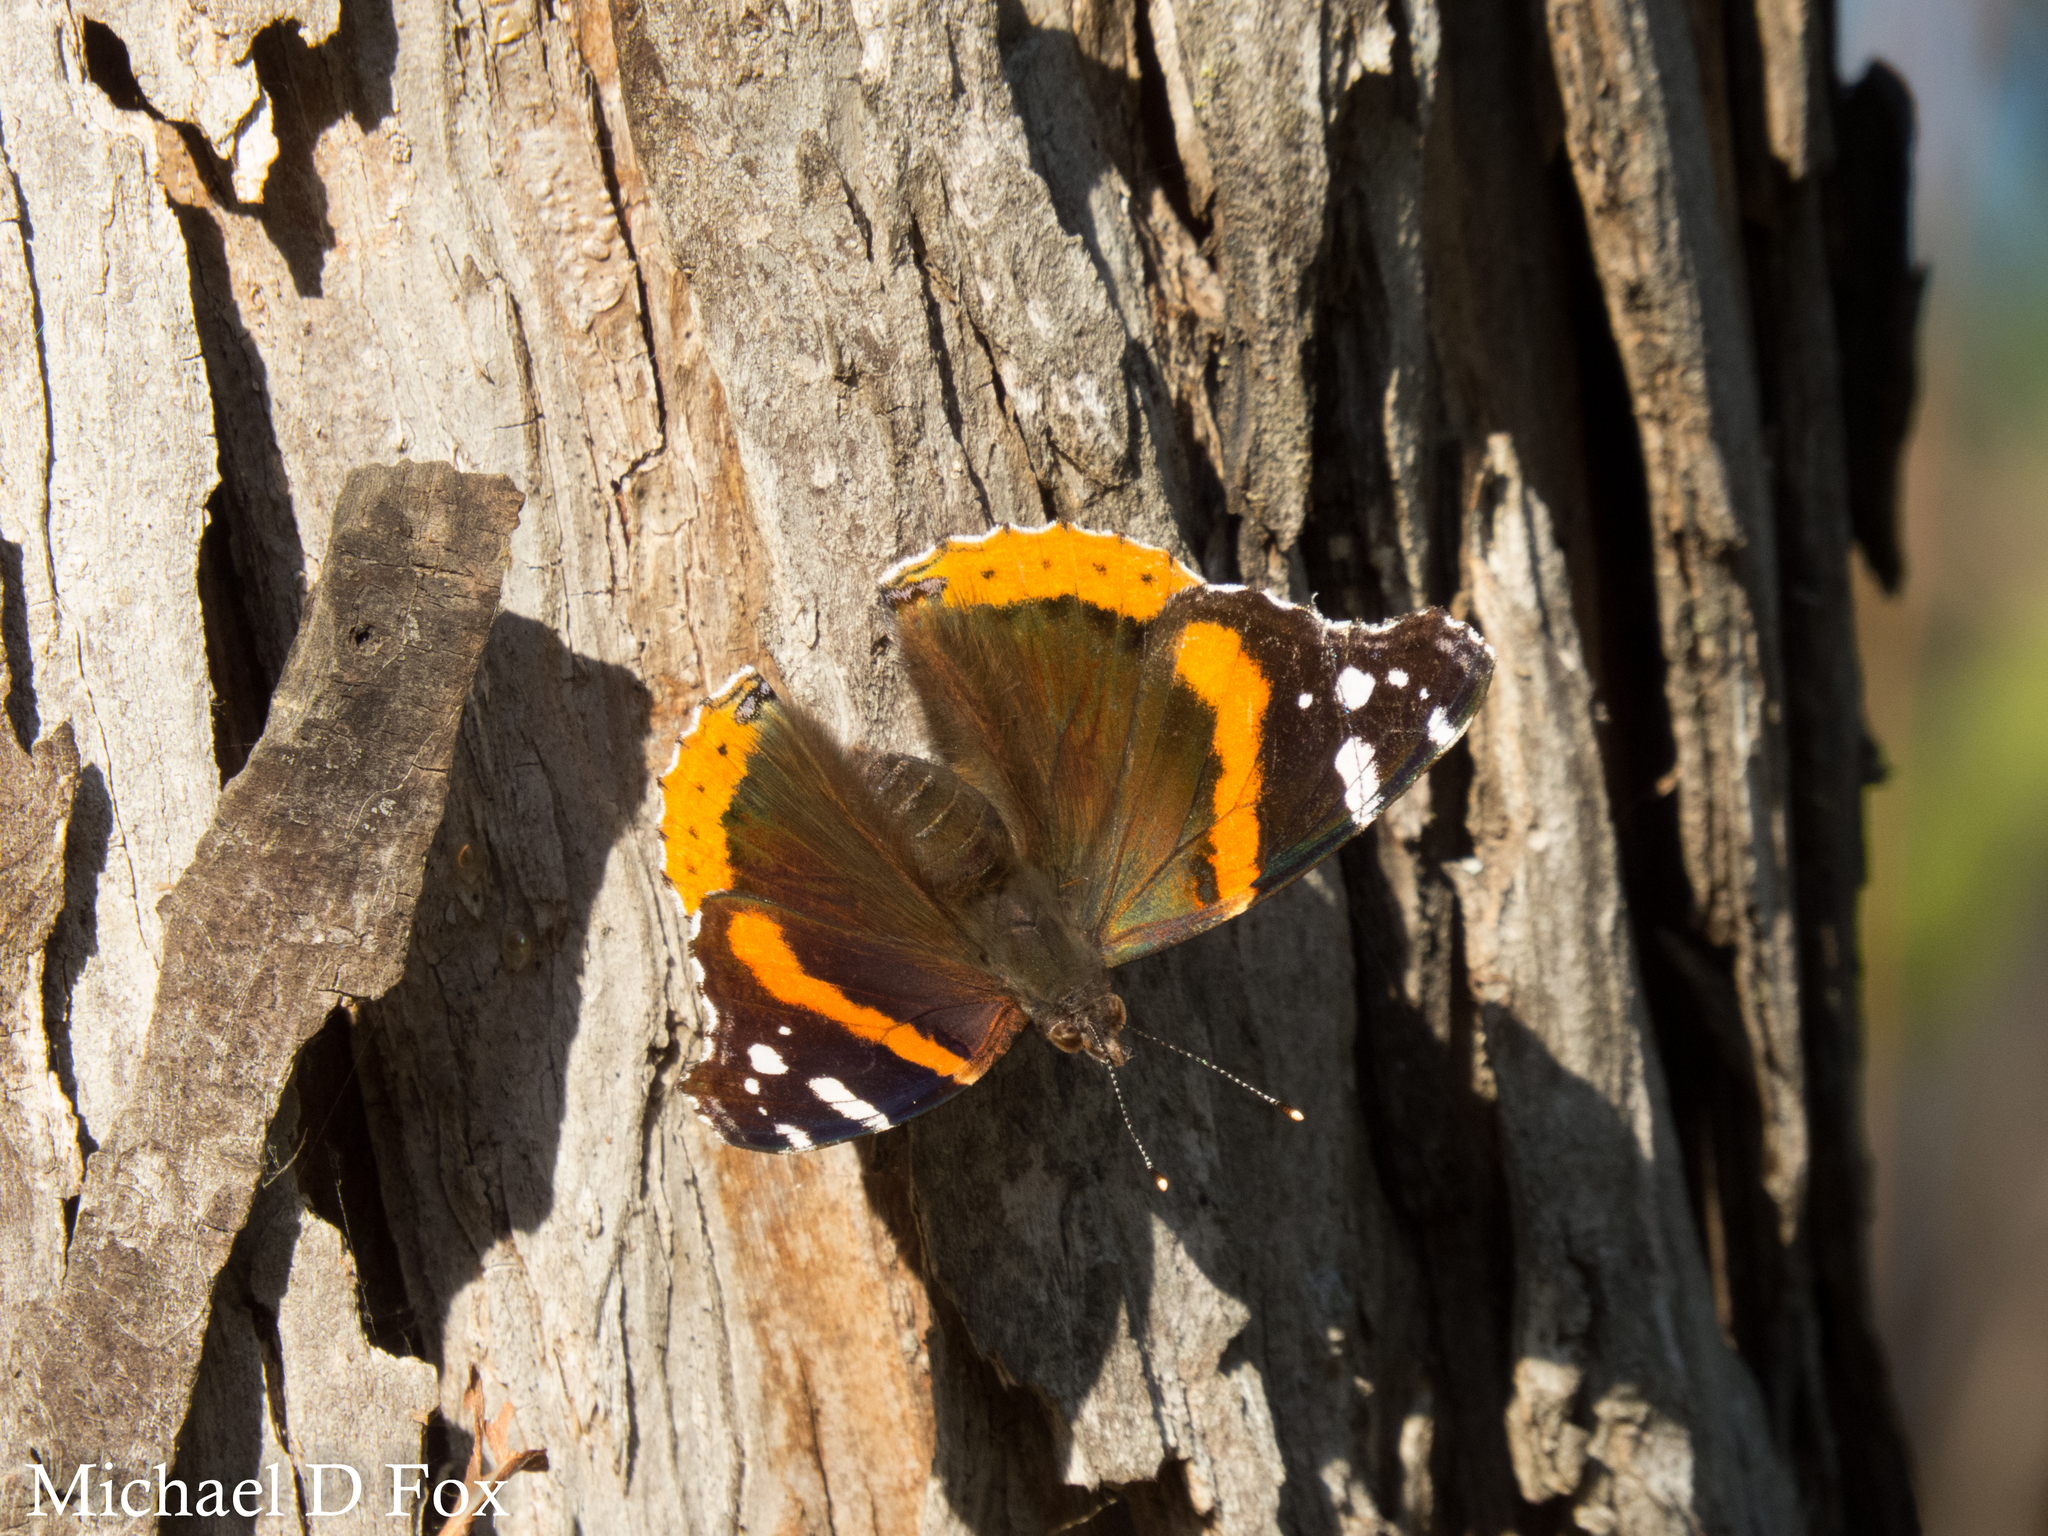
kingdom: Animalia
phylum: Arthropoda
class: Insecta
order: Lepidoptera
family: Nymphalidae
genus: Vanessa
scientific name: Vanessa atalanta
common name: Red admiral
